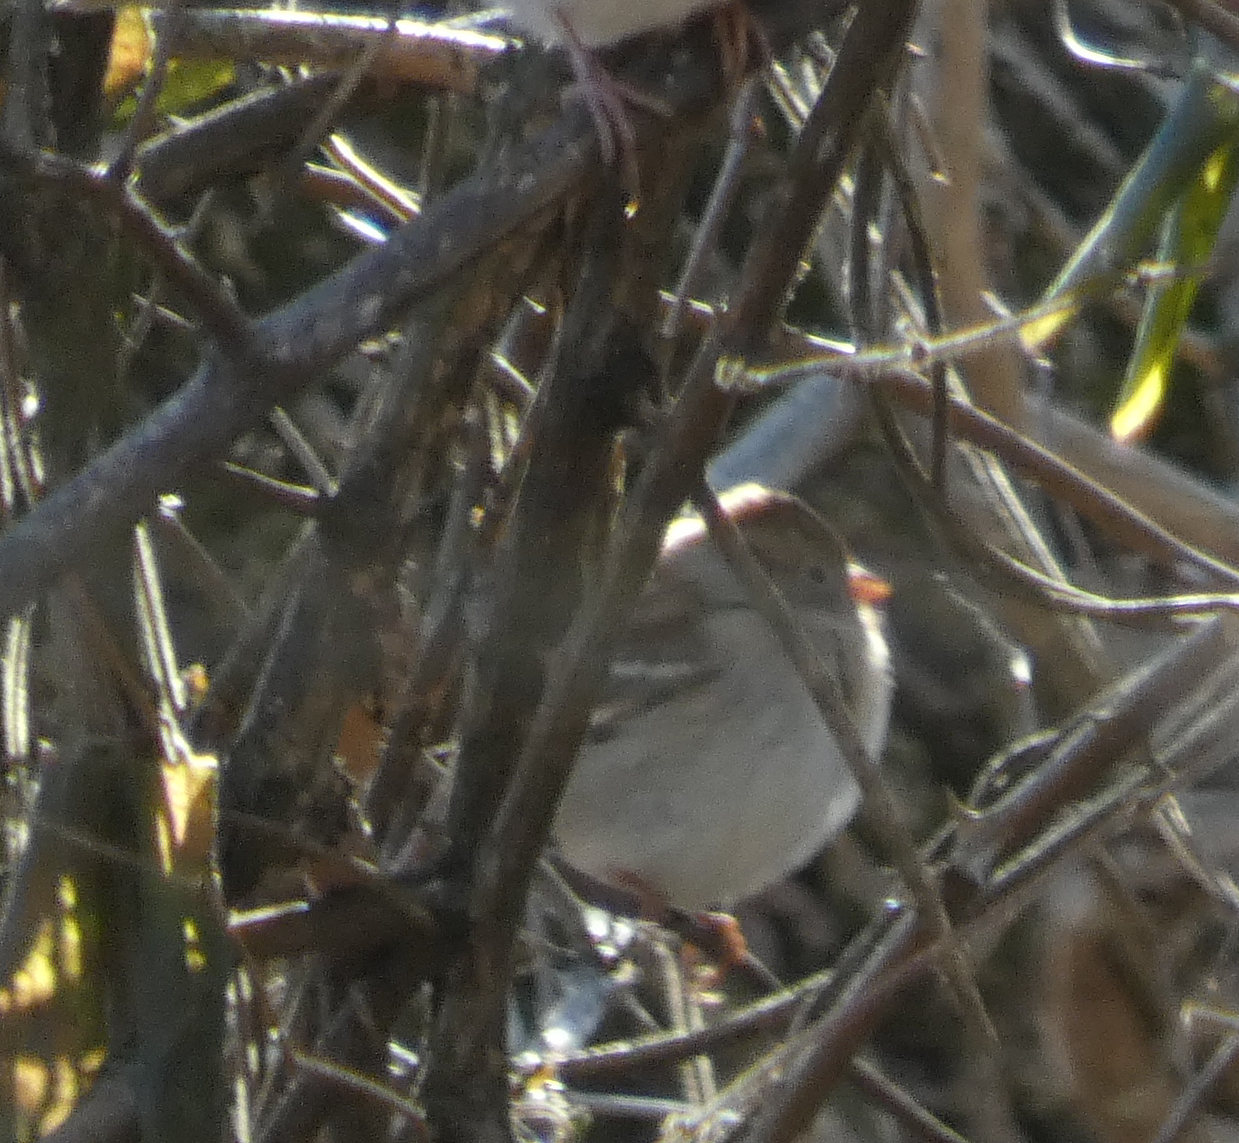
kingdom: Animalia
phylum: Chordata
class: Aves
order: Passeriformes
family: Passerellidae
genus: Spizella
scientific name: Spizella pusilla
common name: Field sparrow
